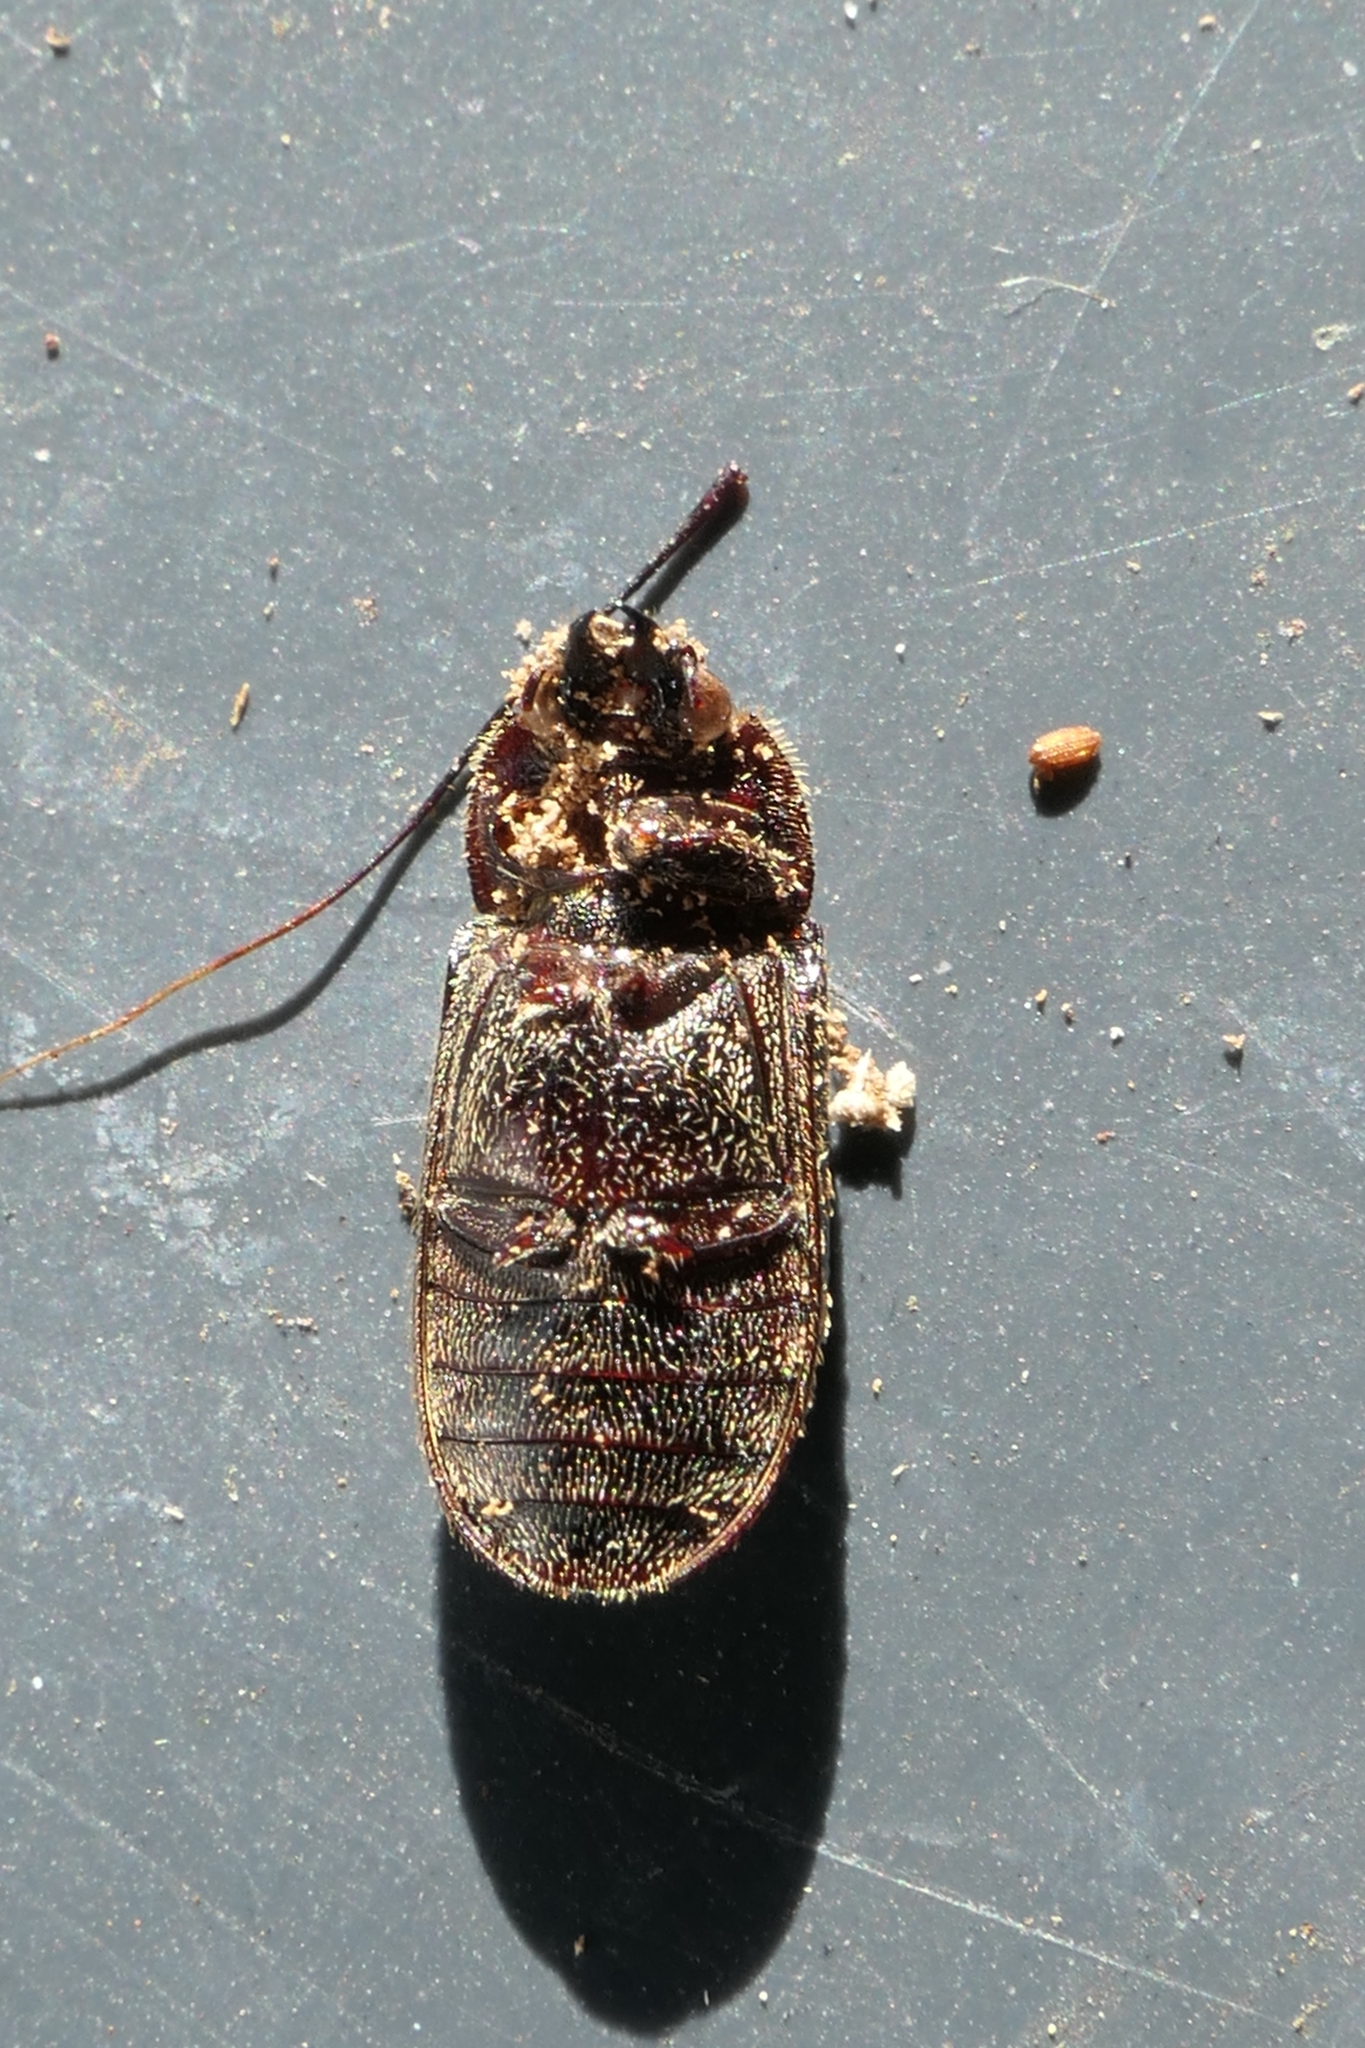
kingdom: Animalia
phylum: Arthropoda
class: Insecta
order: Coleoptera
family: Lucanidae
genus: Mitophyllus
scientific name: Mitophyllus irroratus
